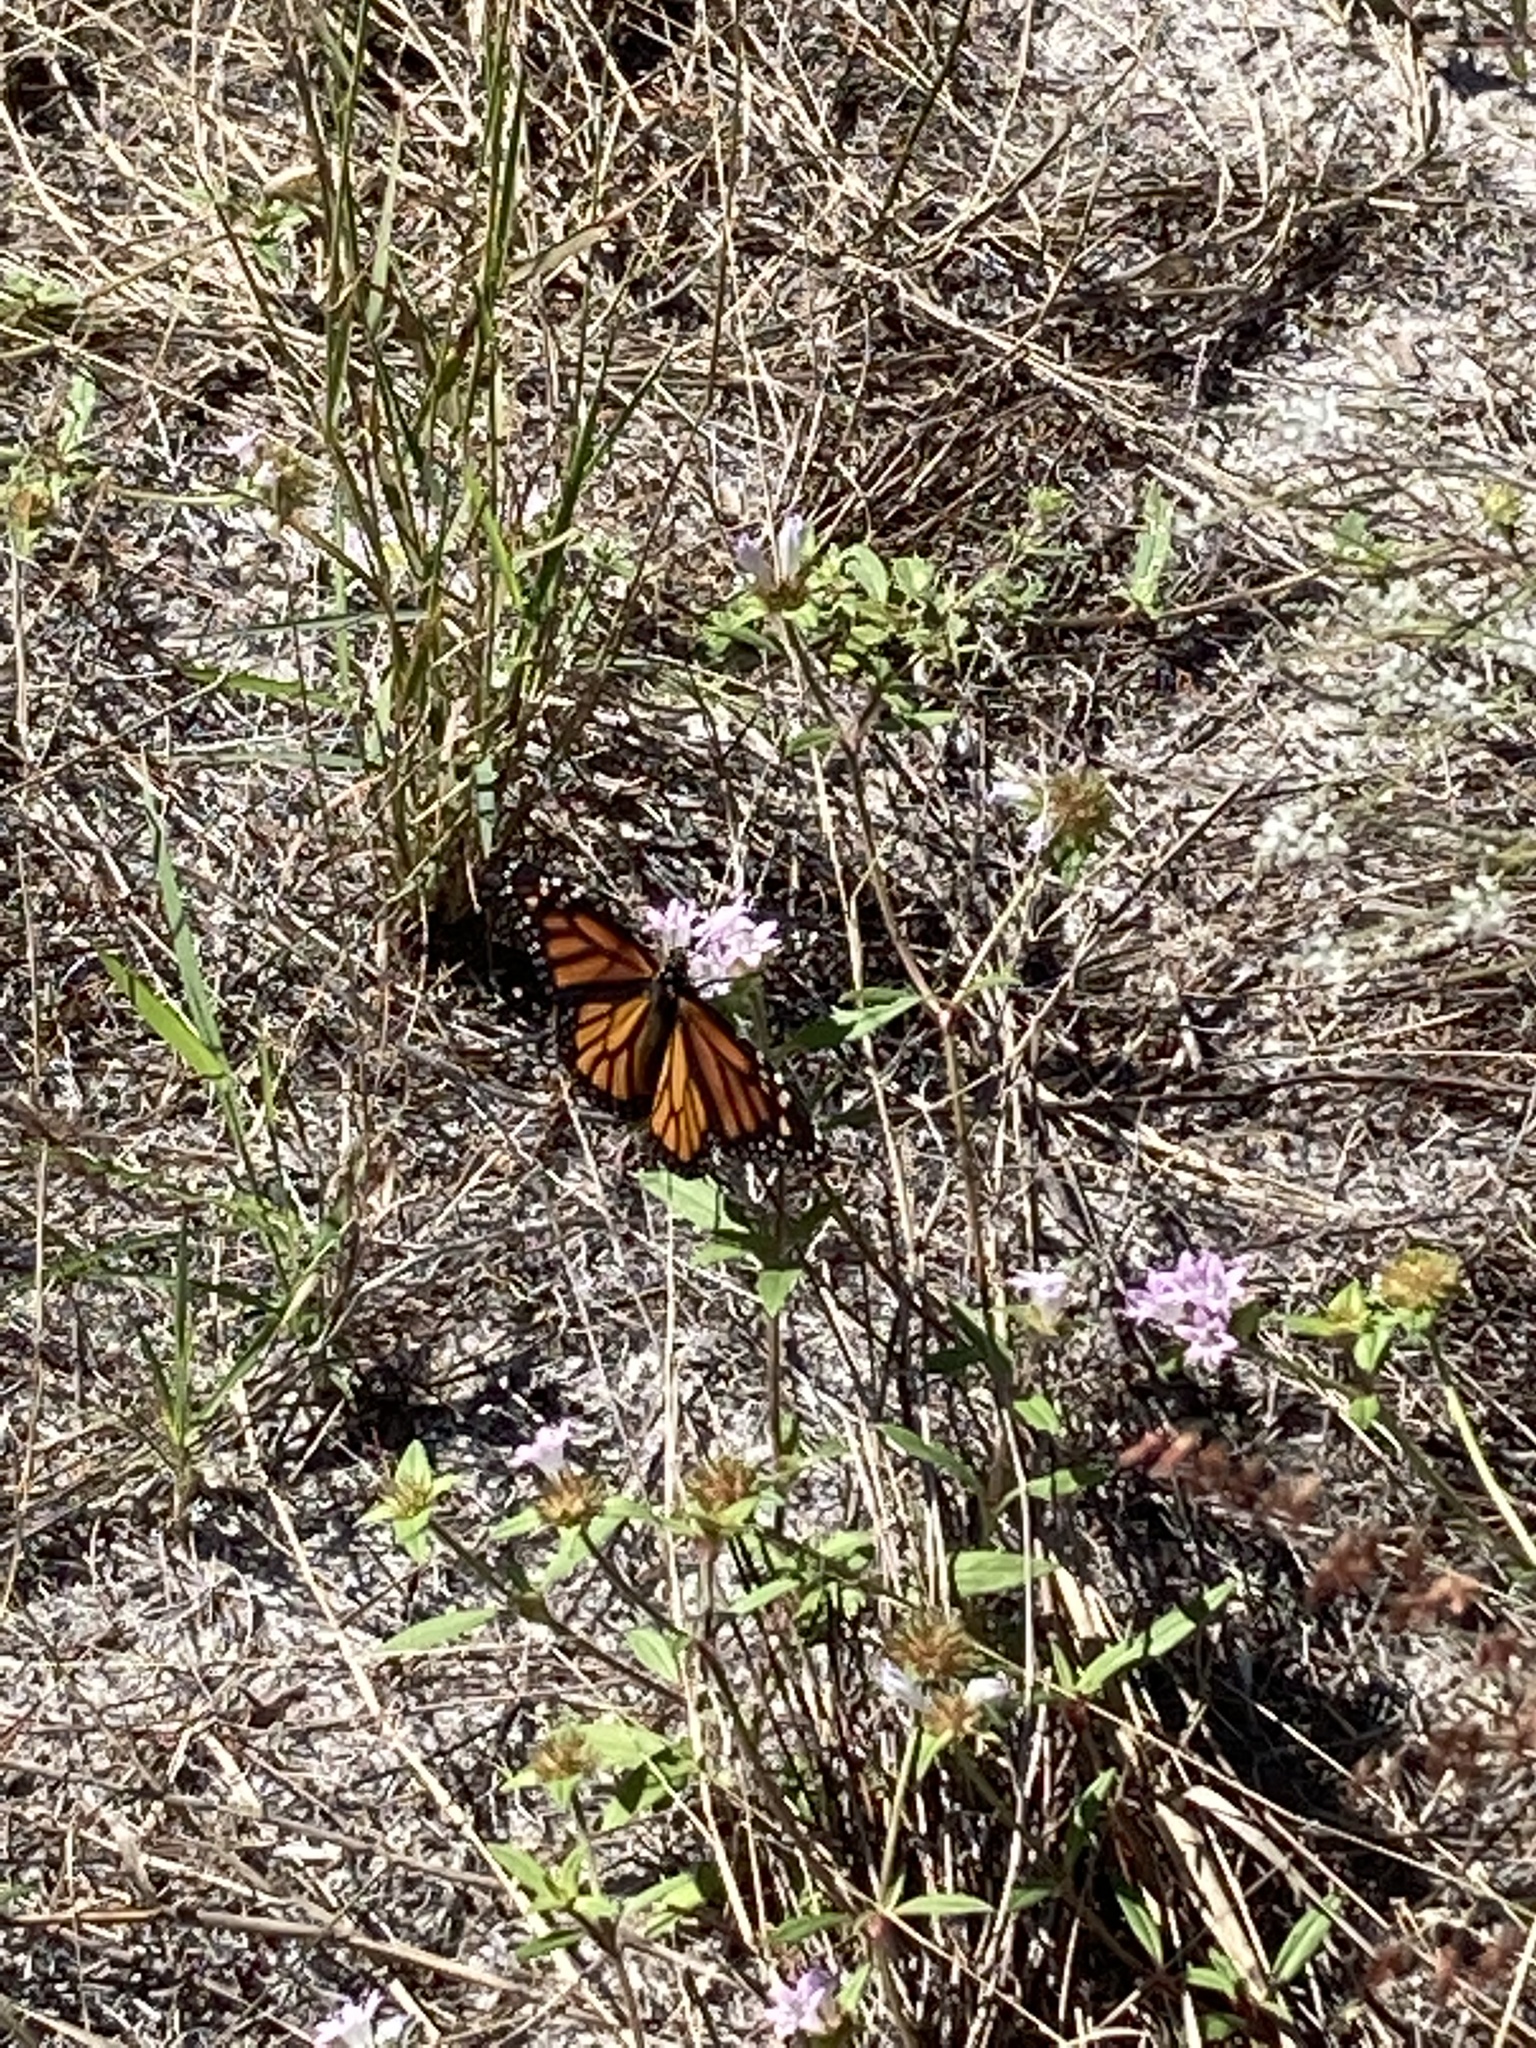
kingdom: Animalia
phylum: Arthropoda
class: Insecta
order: Lepidoptera
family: Nymphalidae
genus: Danaus
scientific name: Danaus plexippus
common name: Monarch
